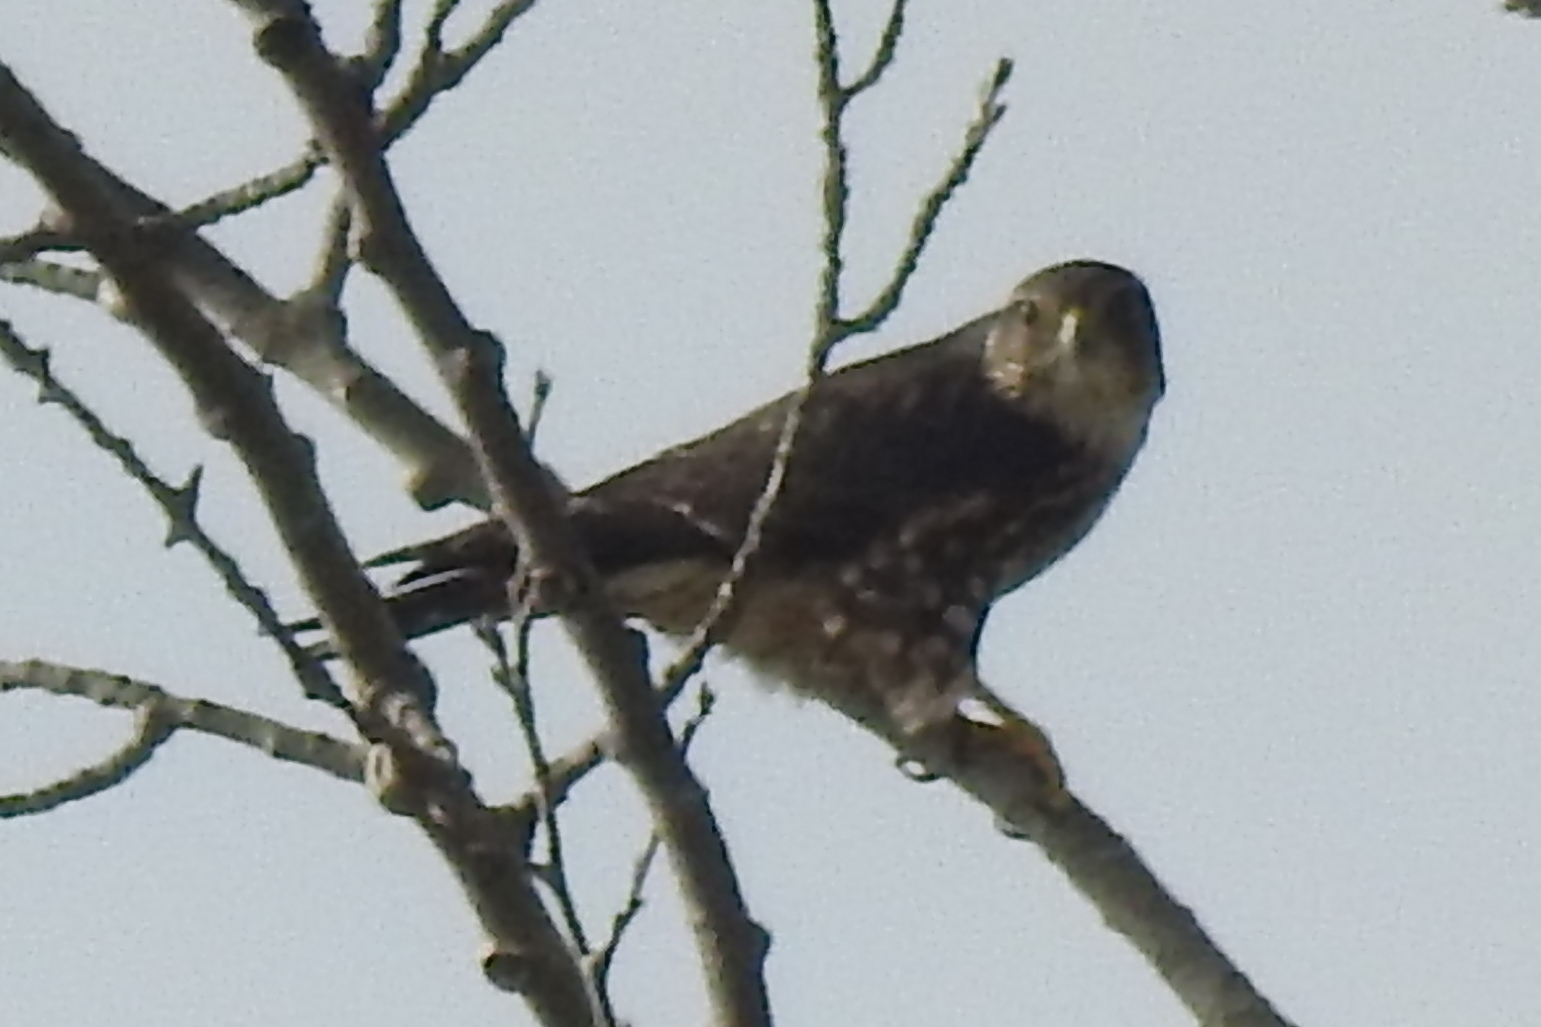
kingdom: Animalia
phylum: Chordata
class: Aves
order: Falconiformes
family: Falconidae
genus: Falco
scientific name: Falco columbarius
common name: Merlin
